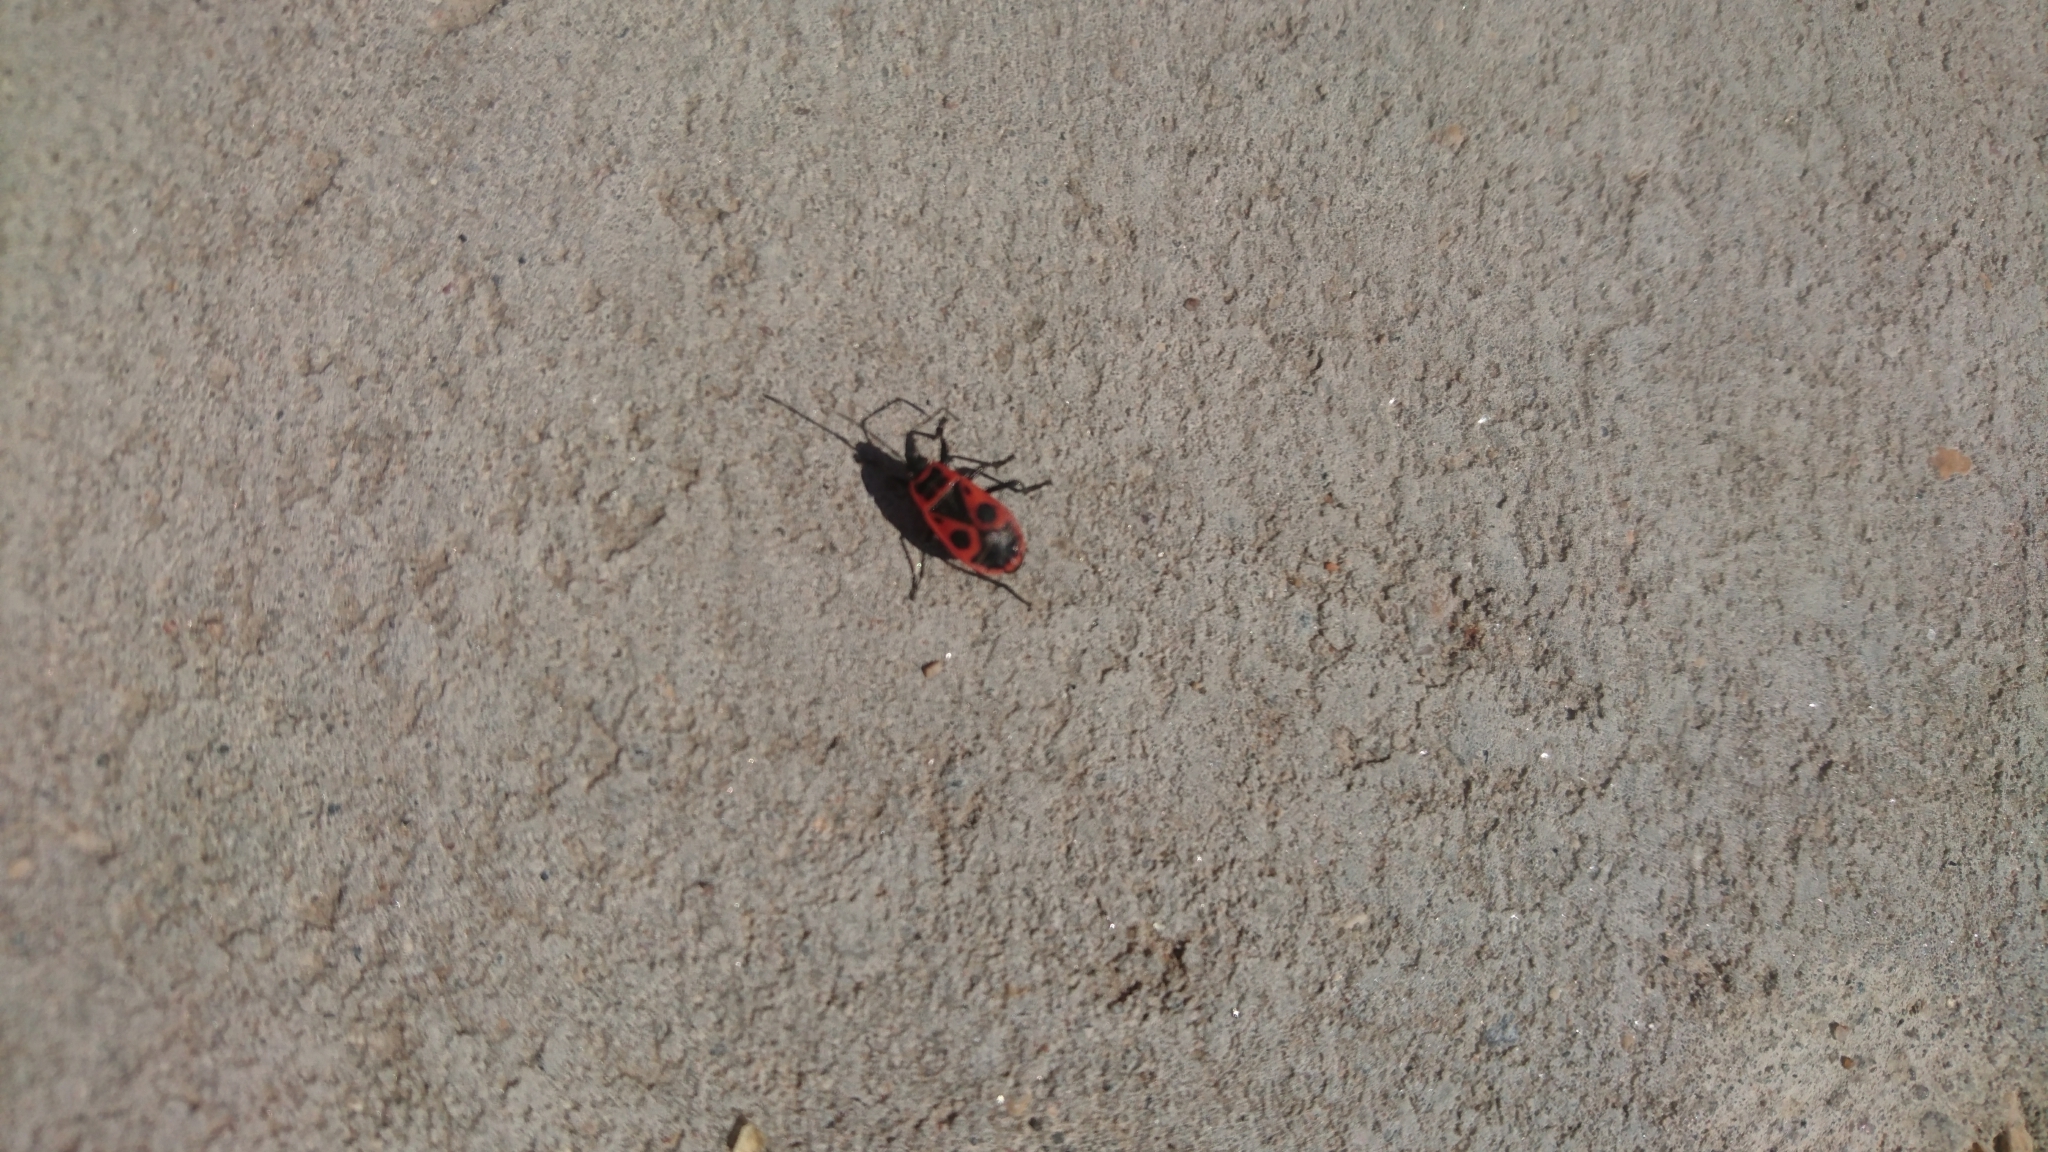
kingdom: Animalia
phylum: Arthropoda
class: Insecta
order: Hemiptera
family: Pyrrhocoridae
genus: Pyrrhocoris
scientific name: Pyrrhocoris apterus
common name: Firebug
